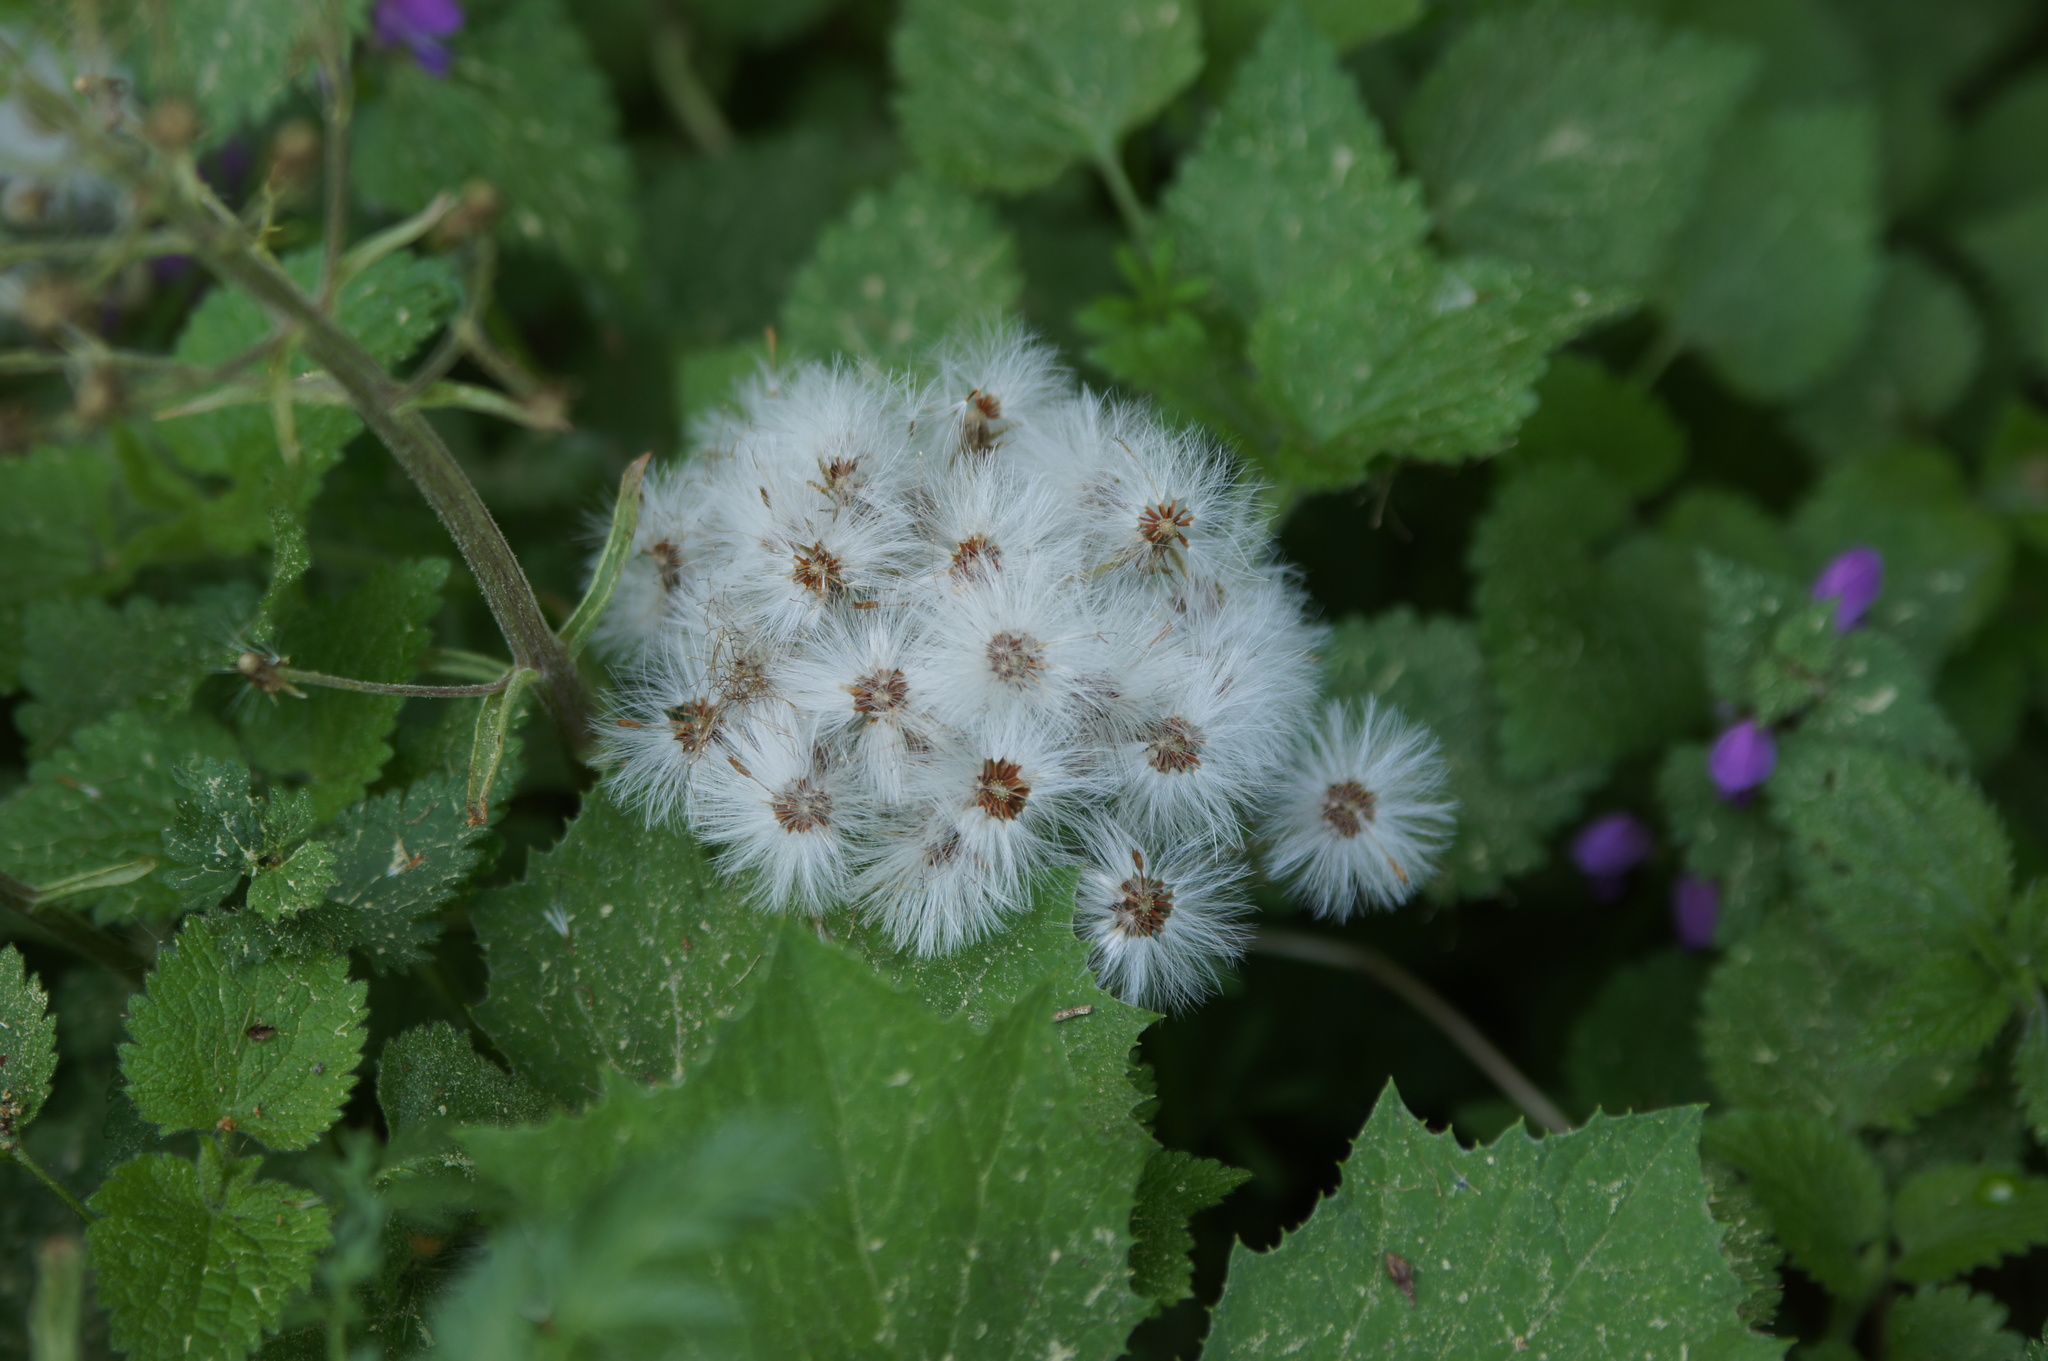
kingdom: Plantae
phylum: Tracheophyta
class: Magnoliopsida
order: Asterales
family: Asteraceae
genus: Petasites
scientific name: Petasites albus
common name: White butterbur
